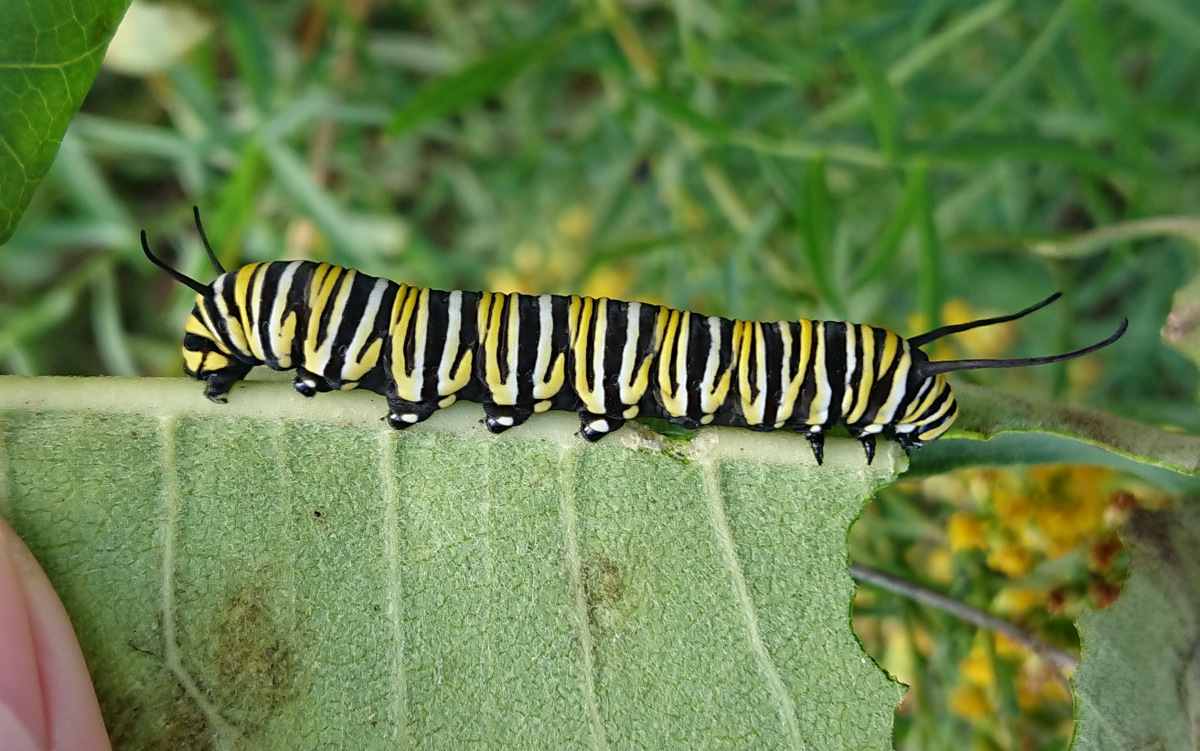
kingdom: Animalia
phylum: Arthropoda
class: Insecta
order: Lepidoptera
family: Nymphalidae
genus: Danaus
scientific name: Danaus plexippus
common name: Monarch
